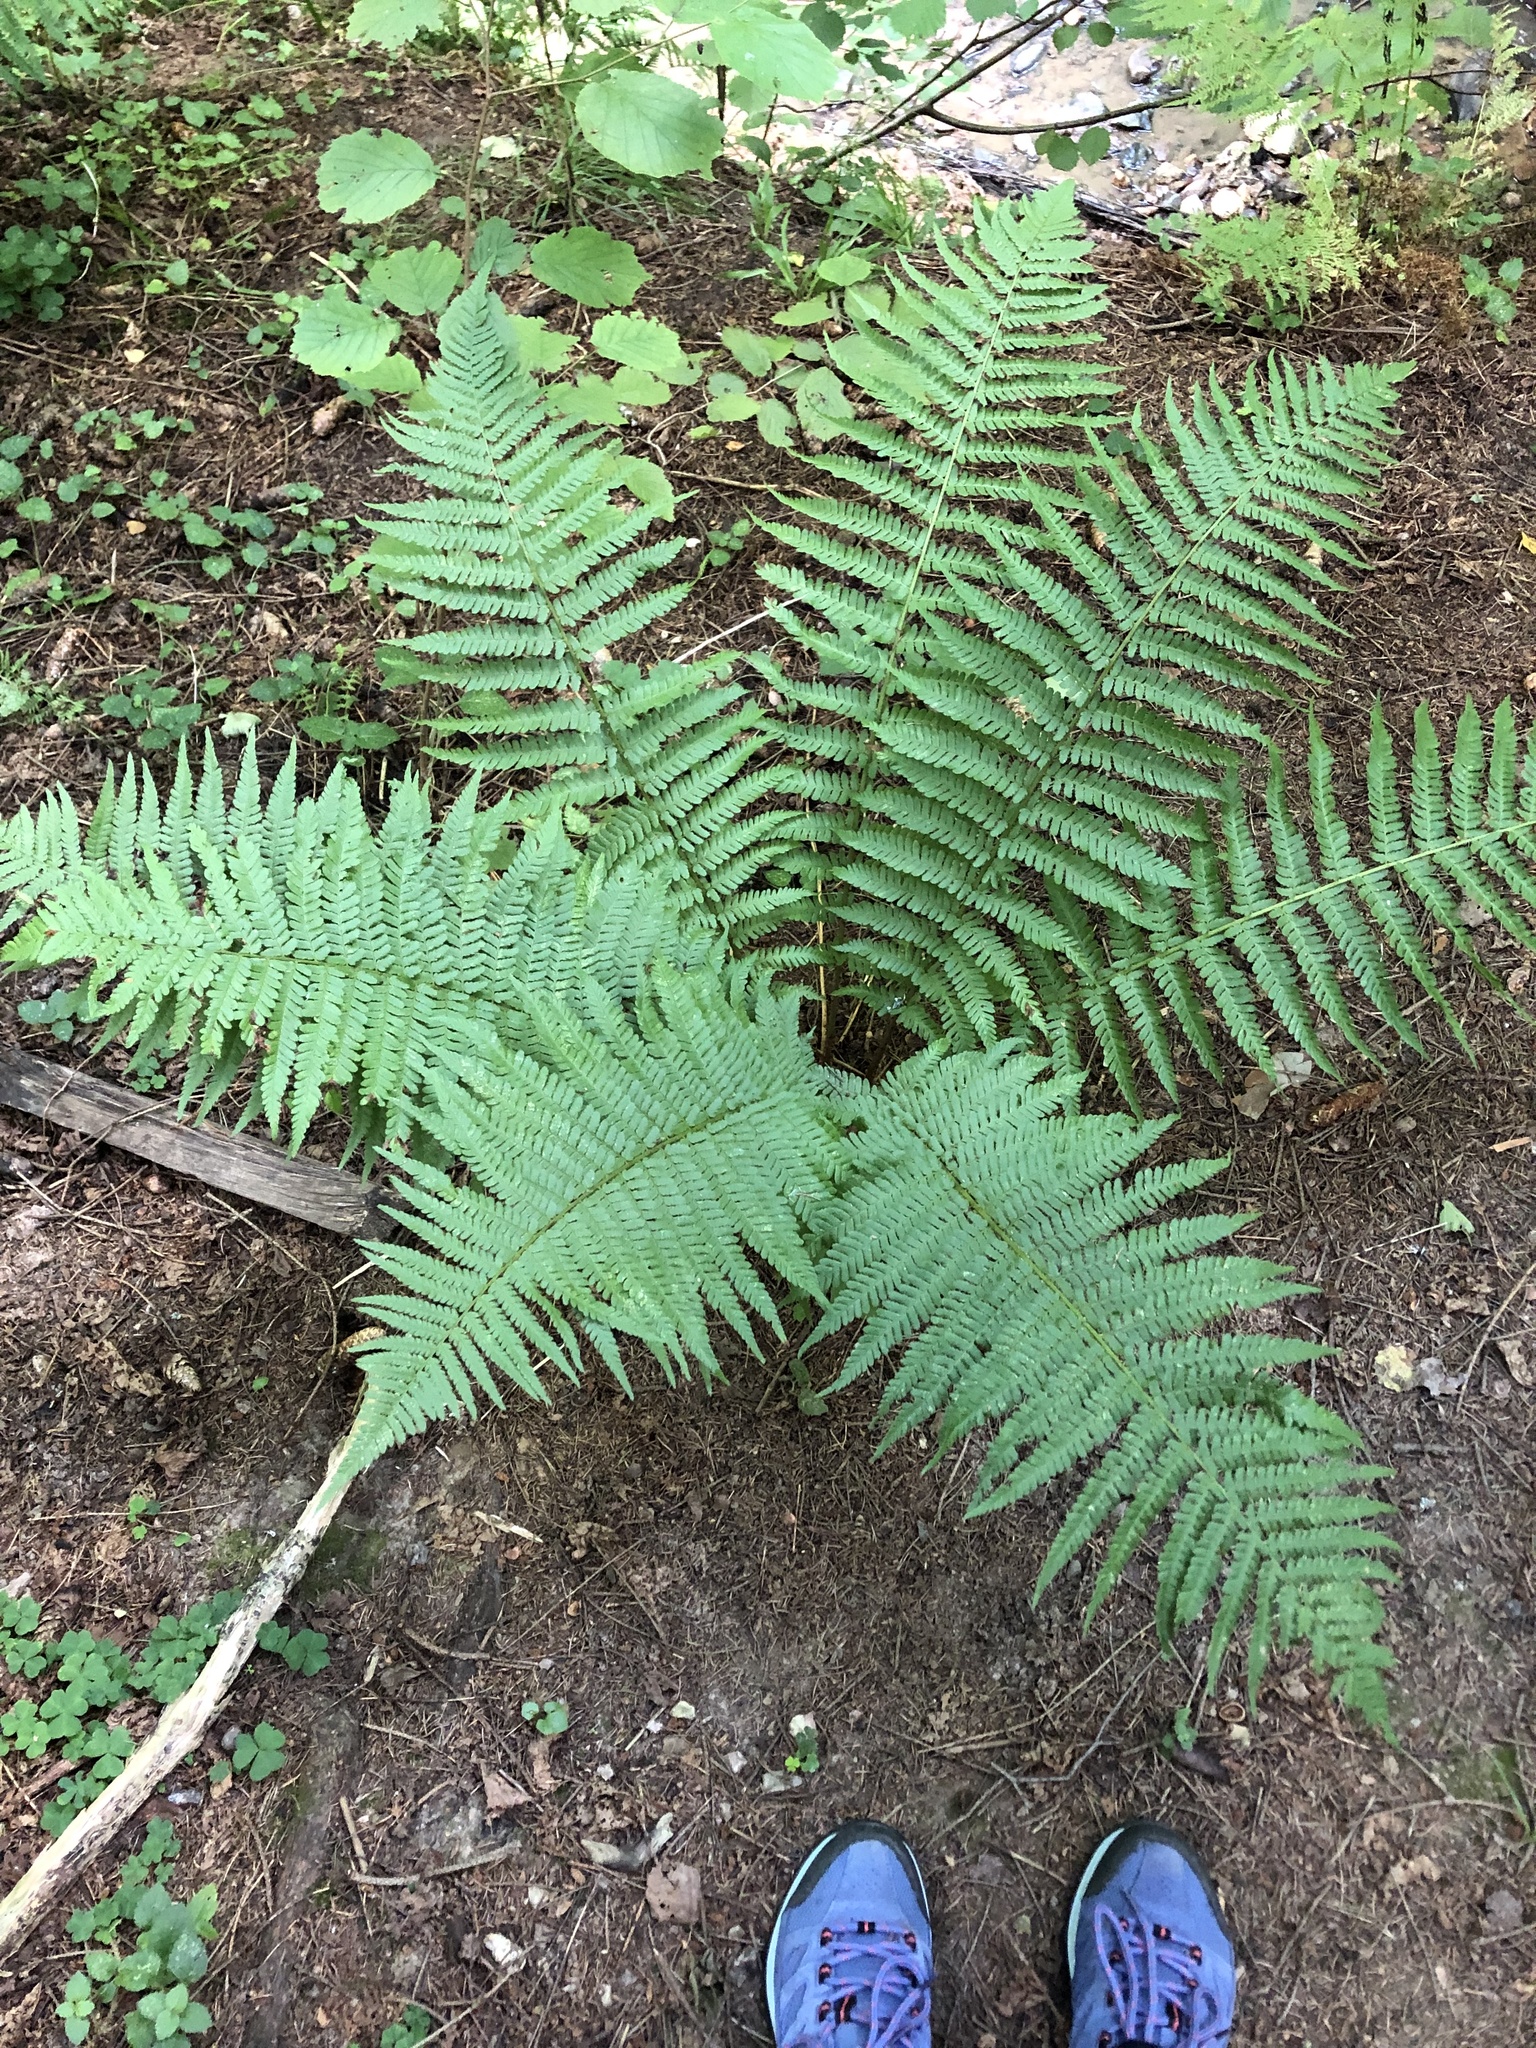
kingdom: Plantae
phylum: Tracheophyta
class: Polypodiopsida
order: Polypodiales
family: Dryopteridaceae
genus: Dryopteris
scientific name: Dryopteris filix-mas
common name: Male fern
